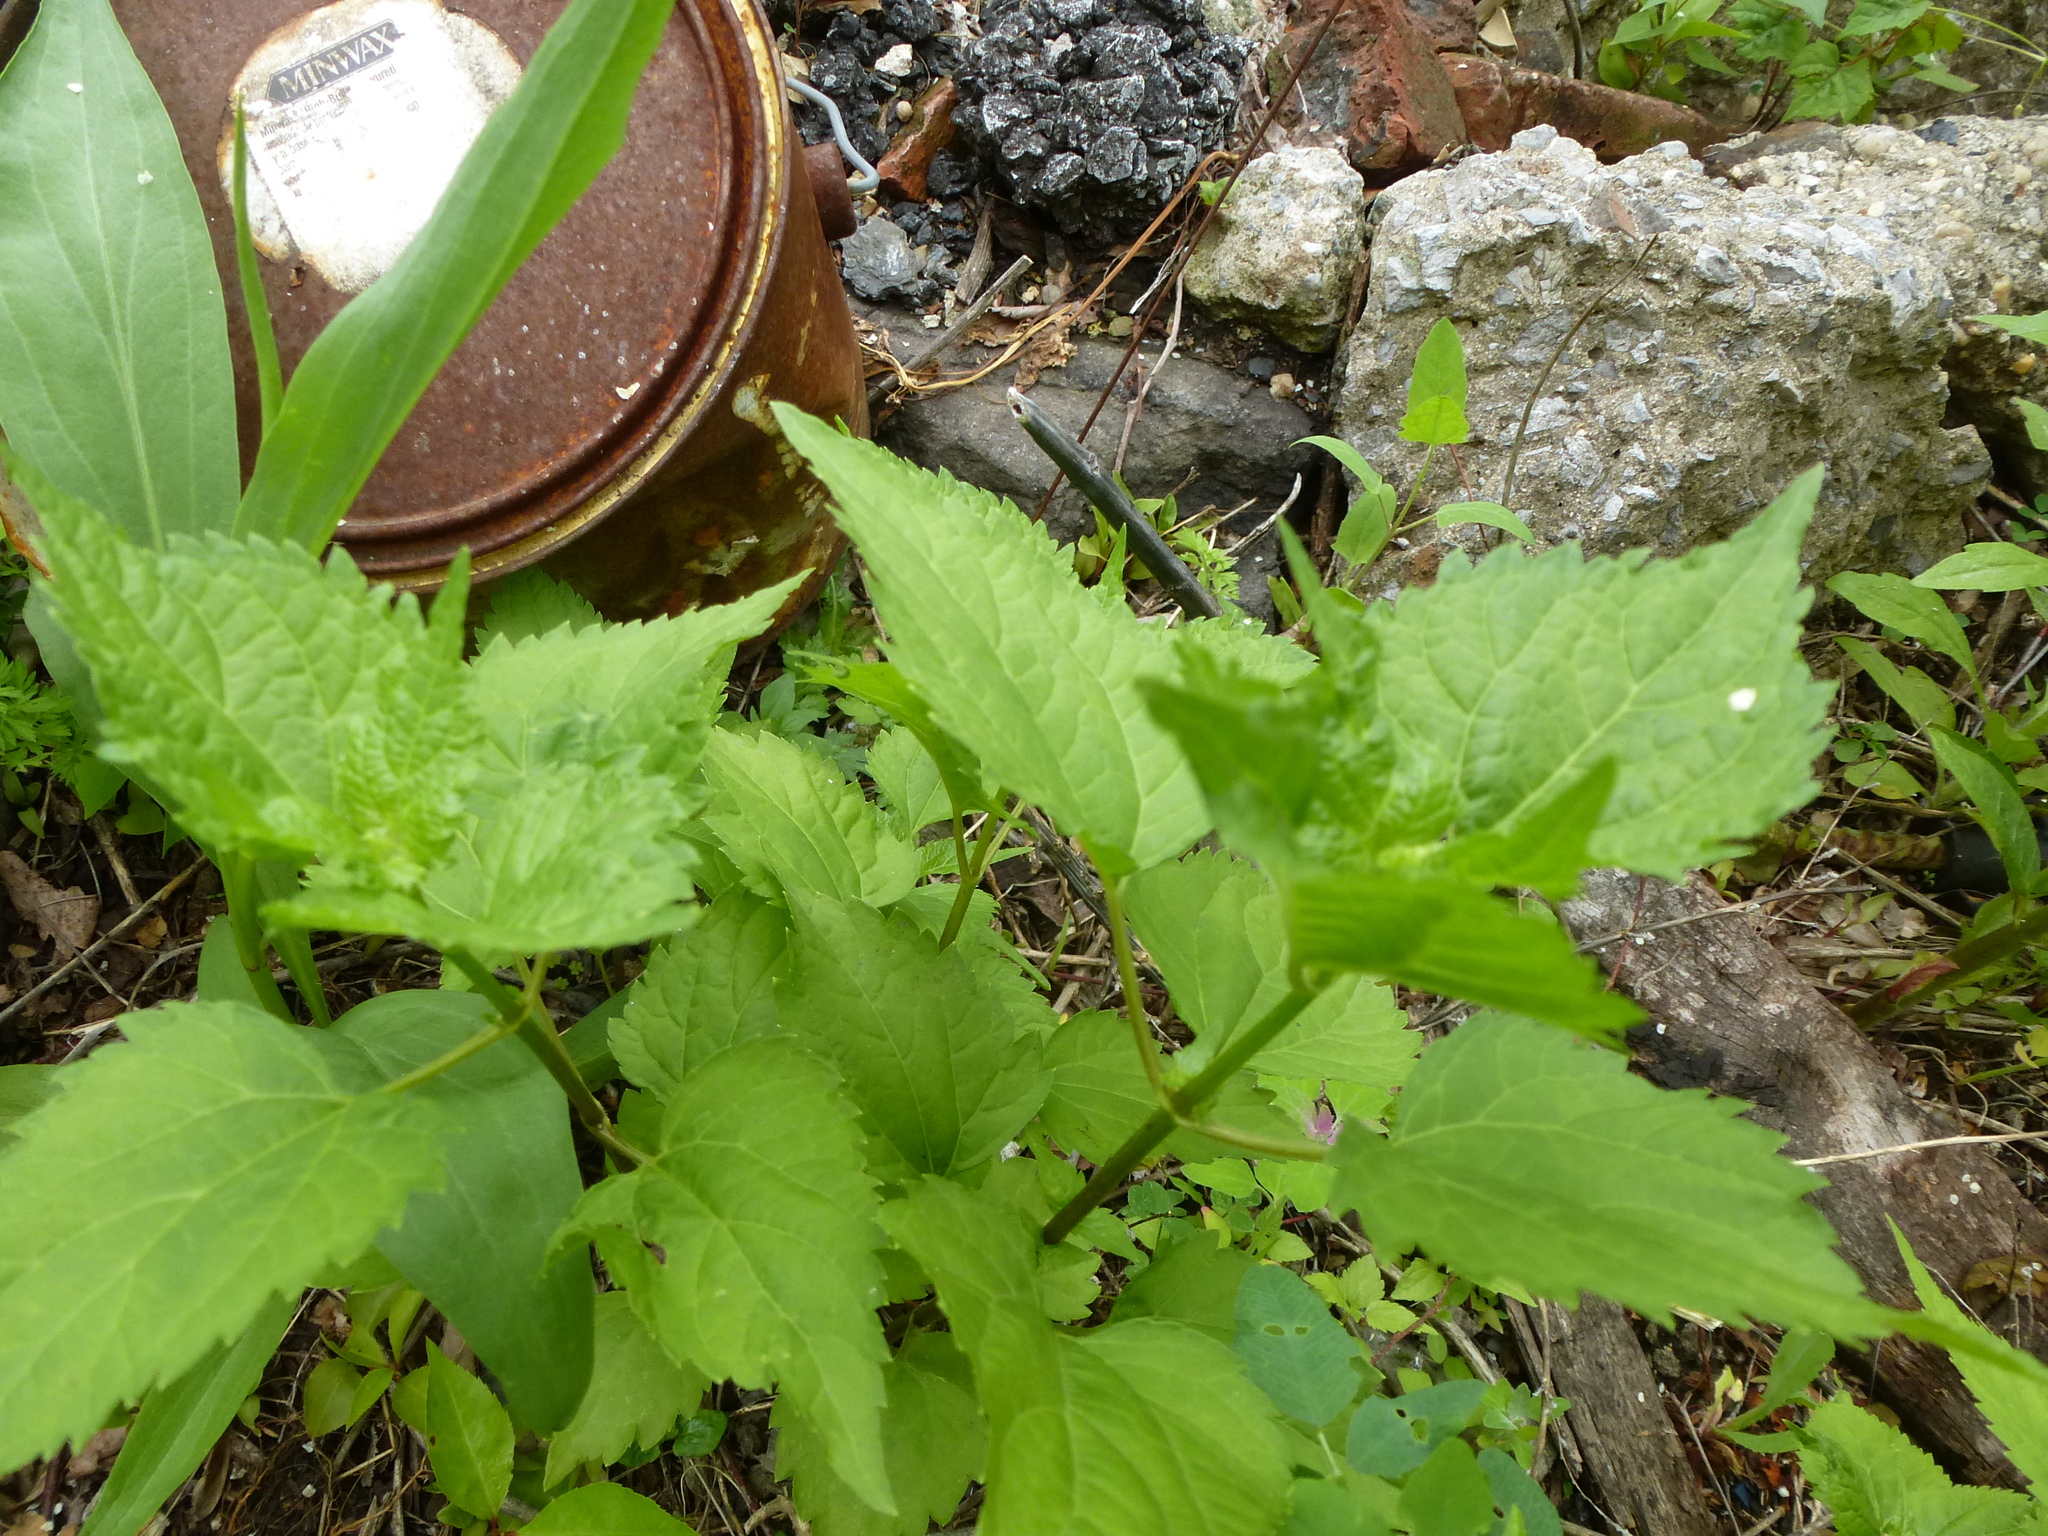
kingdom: Plantae
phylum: Tracheophyta
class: Magnoliopsida
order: Asterales
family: Asteraceae
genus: Ageratina
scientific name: Ageratina altissima
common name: White snakeroot
